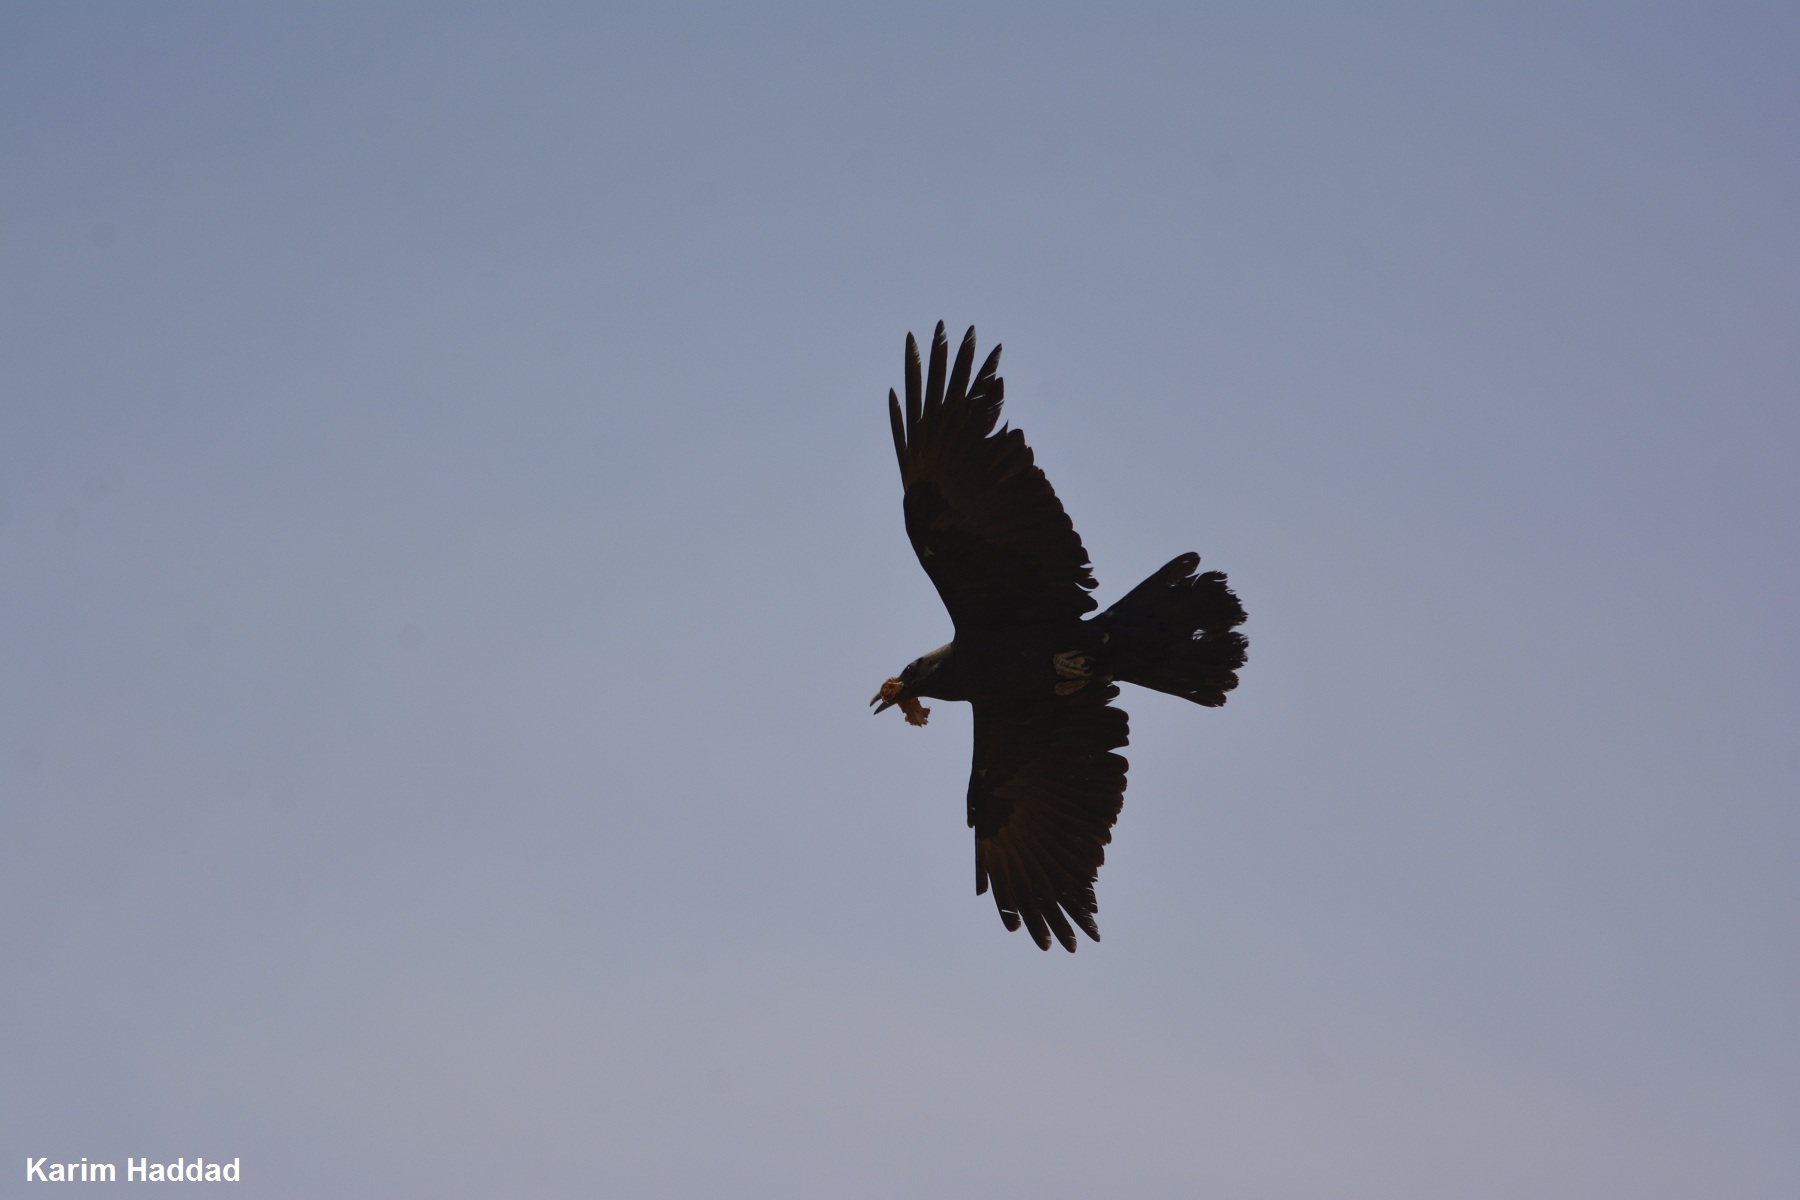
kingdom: Animalia
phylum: Chordata
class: Aves
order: Passeriformes
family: Corvidae
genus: Corvus
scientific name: Corvus ruficollis
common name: Brown-necked raven
